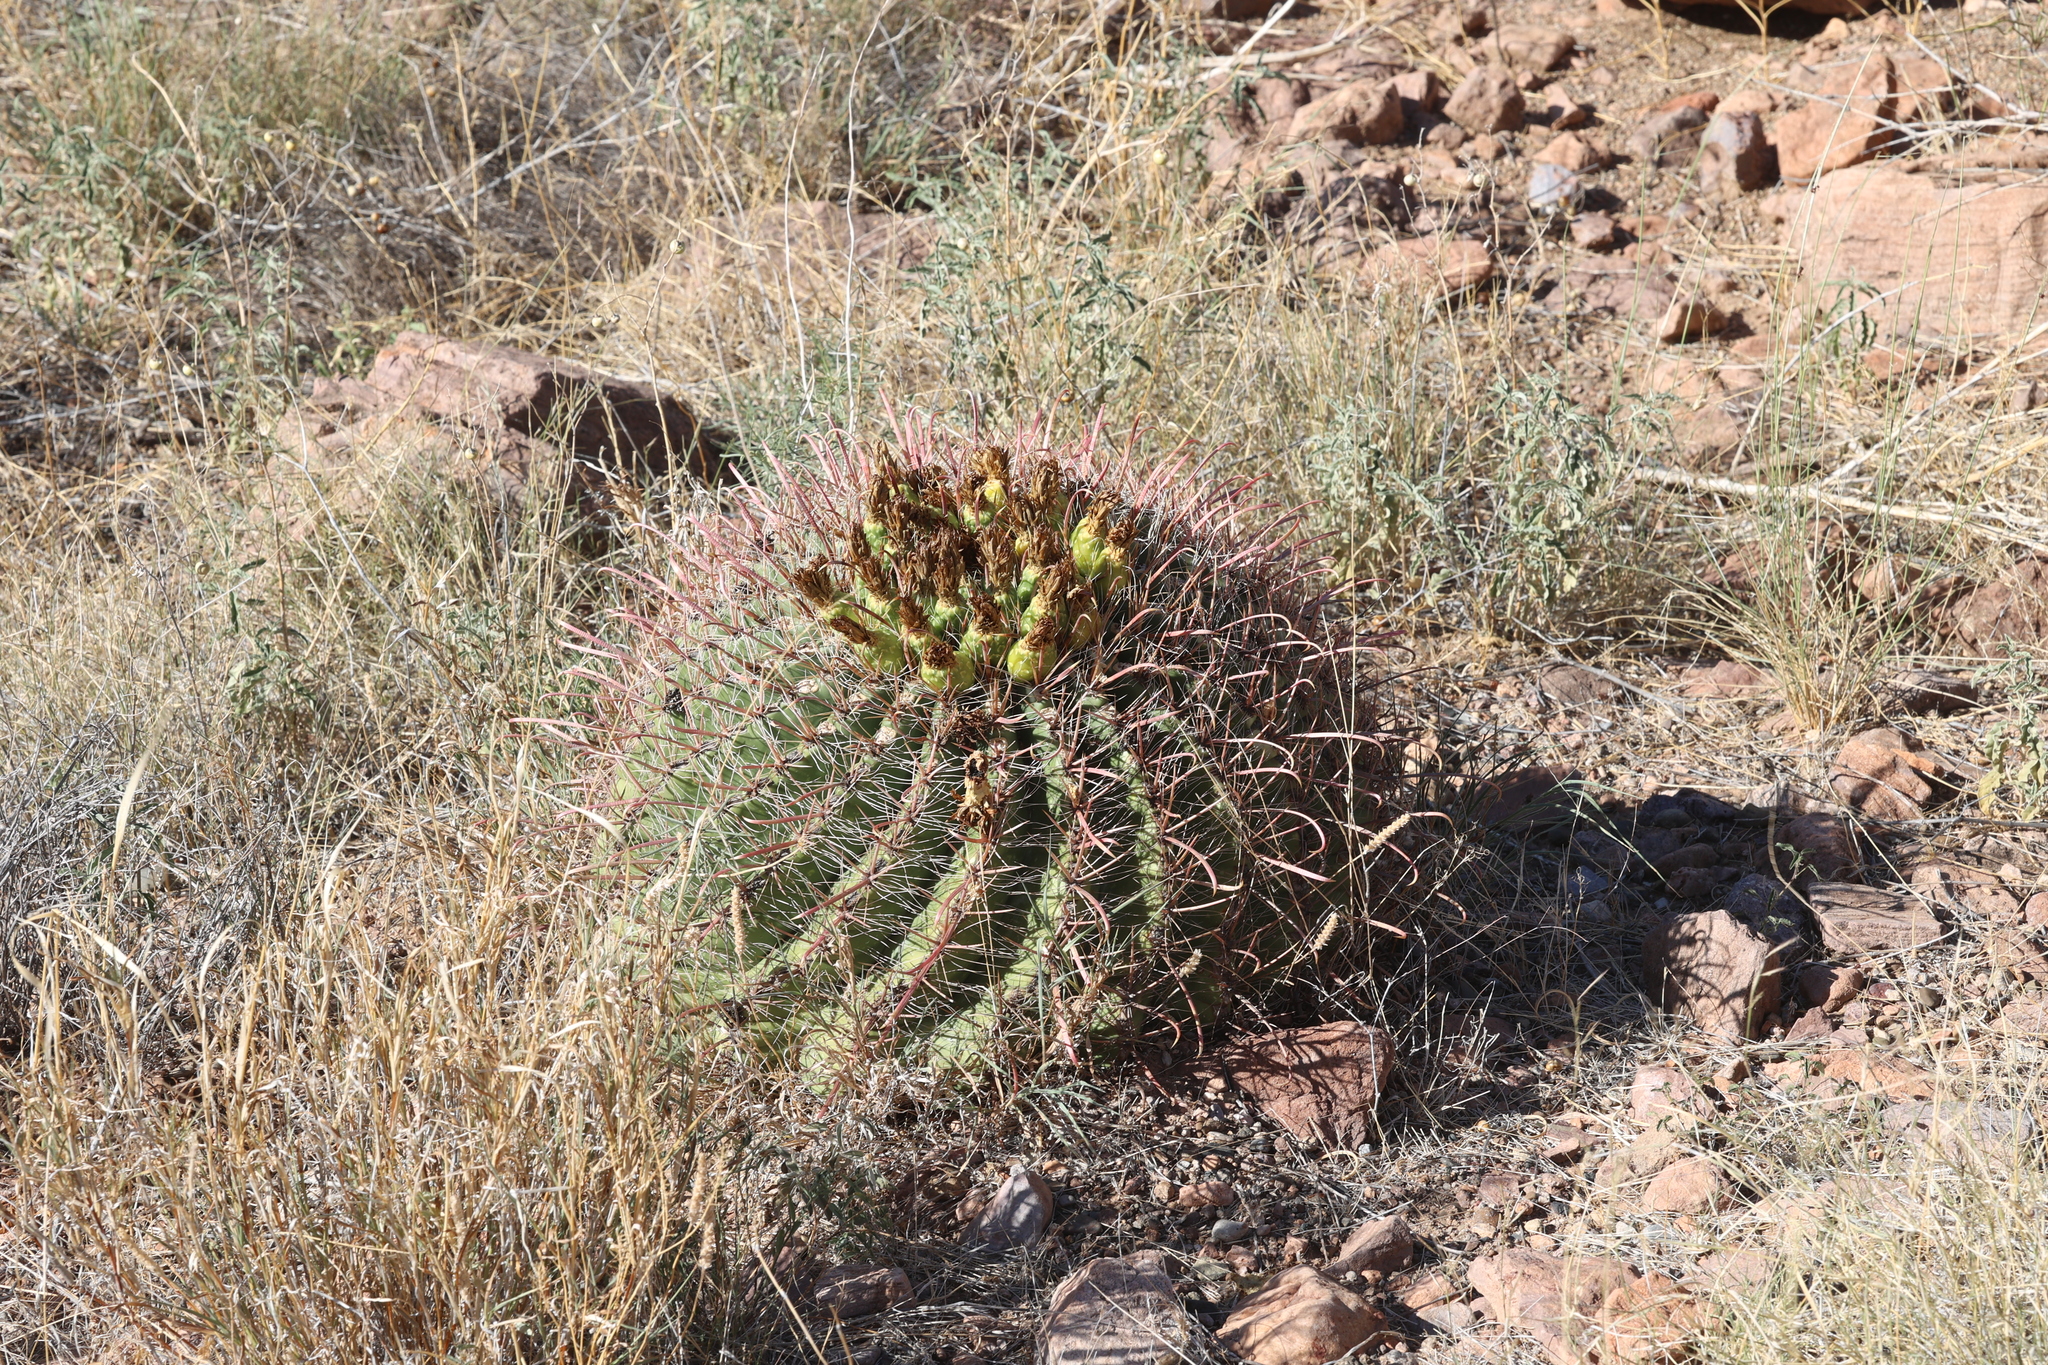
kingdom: Plantae
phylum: Tracheophyta
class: Magnoliopsida
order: Caryophyllales
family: Cactaceae
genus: Ferocactus
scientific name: Ferocactus wislizeni
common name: Candy barrel cactus
